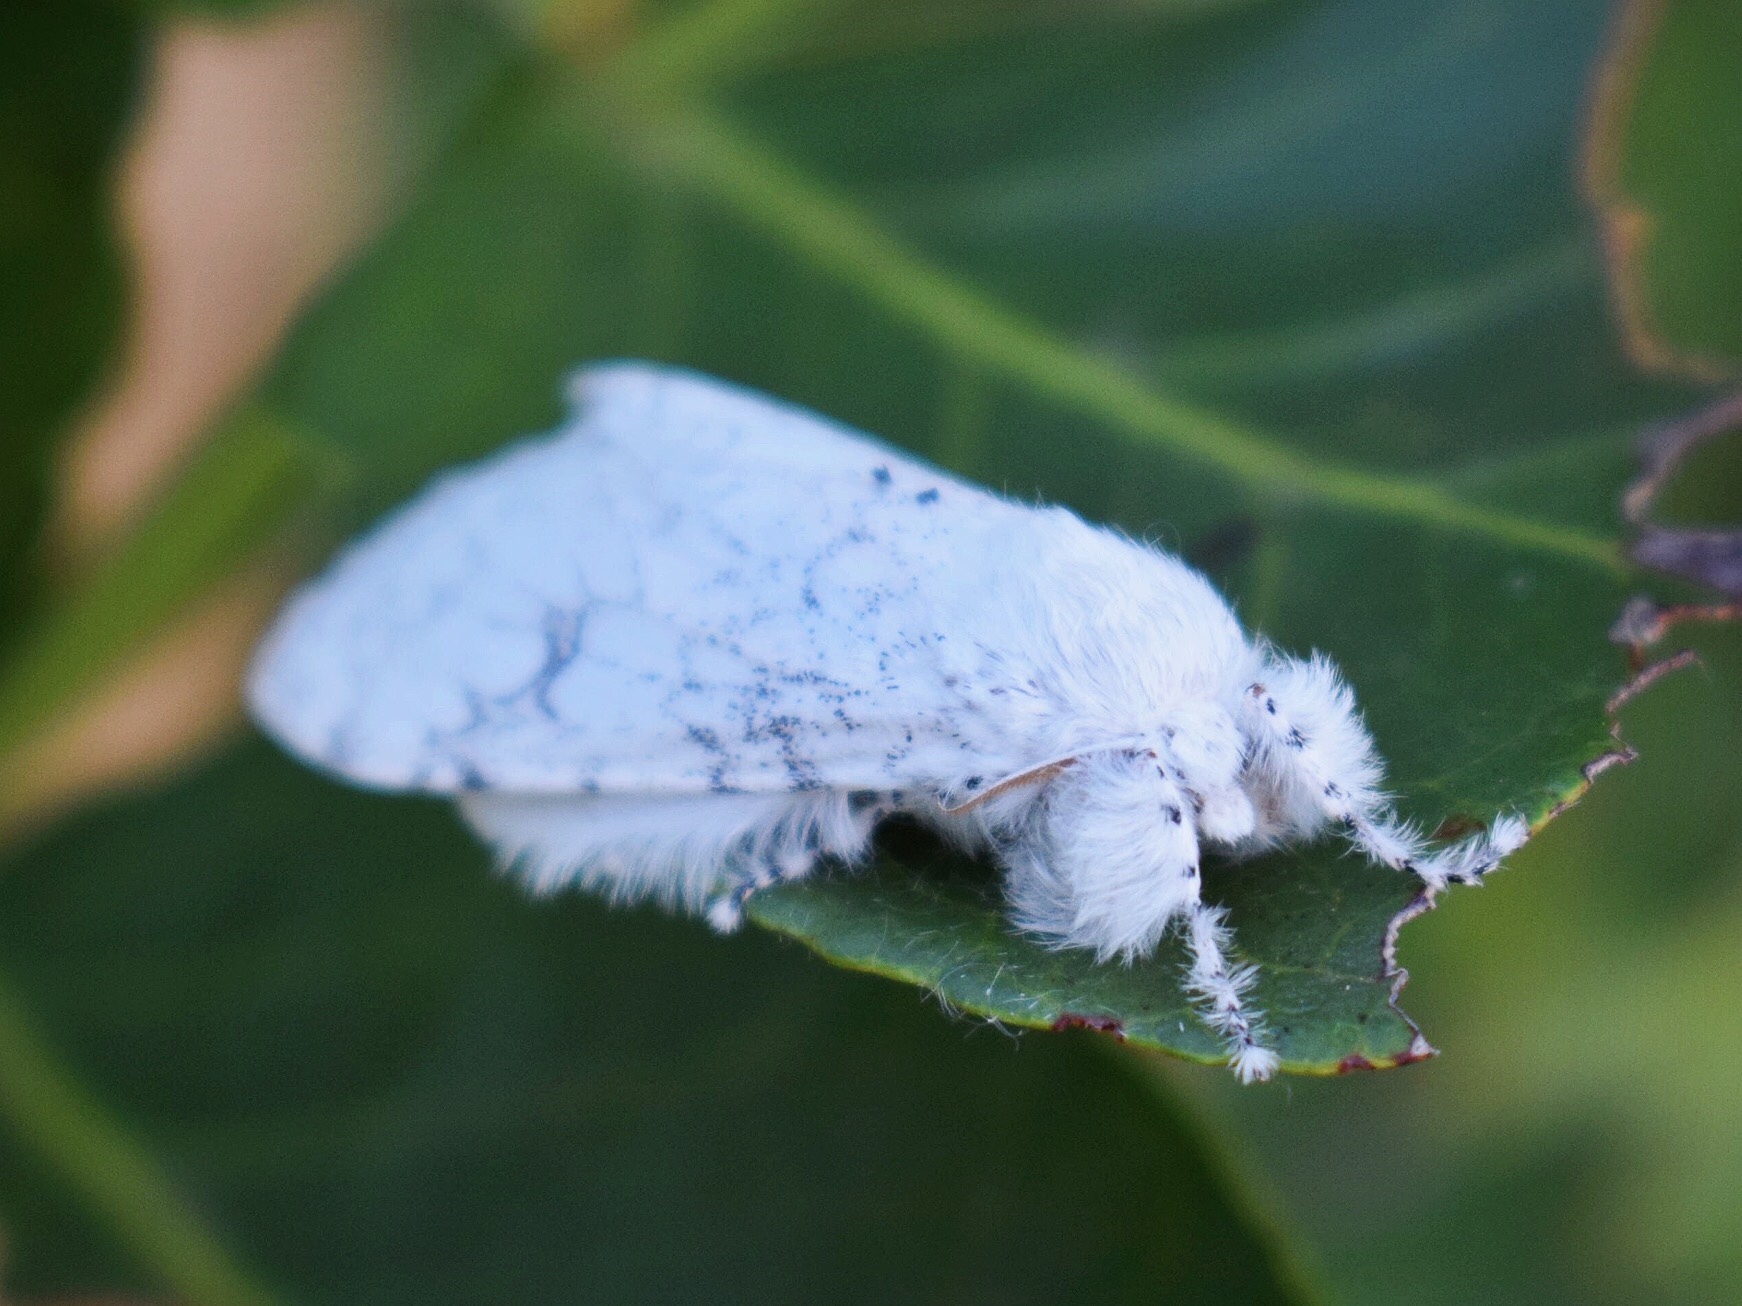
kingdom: Animalia
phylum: Arthropoda
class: Insecta
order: Lepidoptera
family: Erebidae
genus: Dasychira
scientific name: Dasychira georgiana
